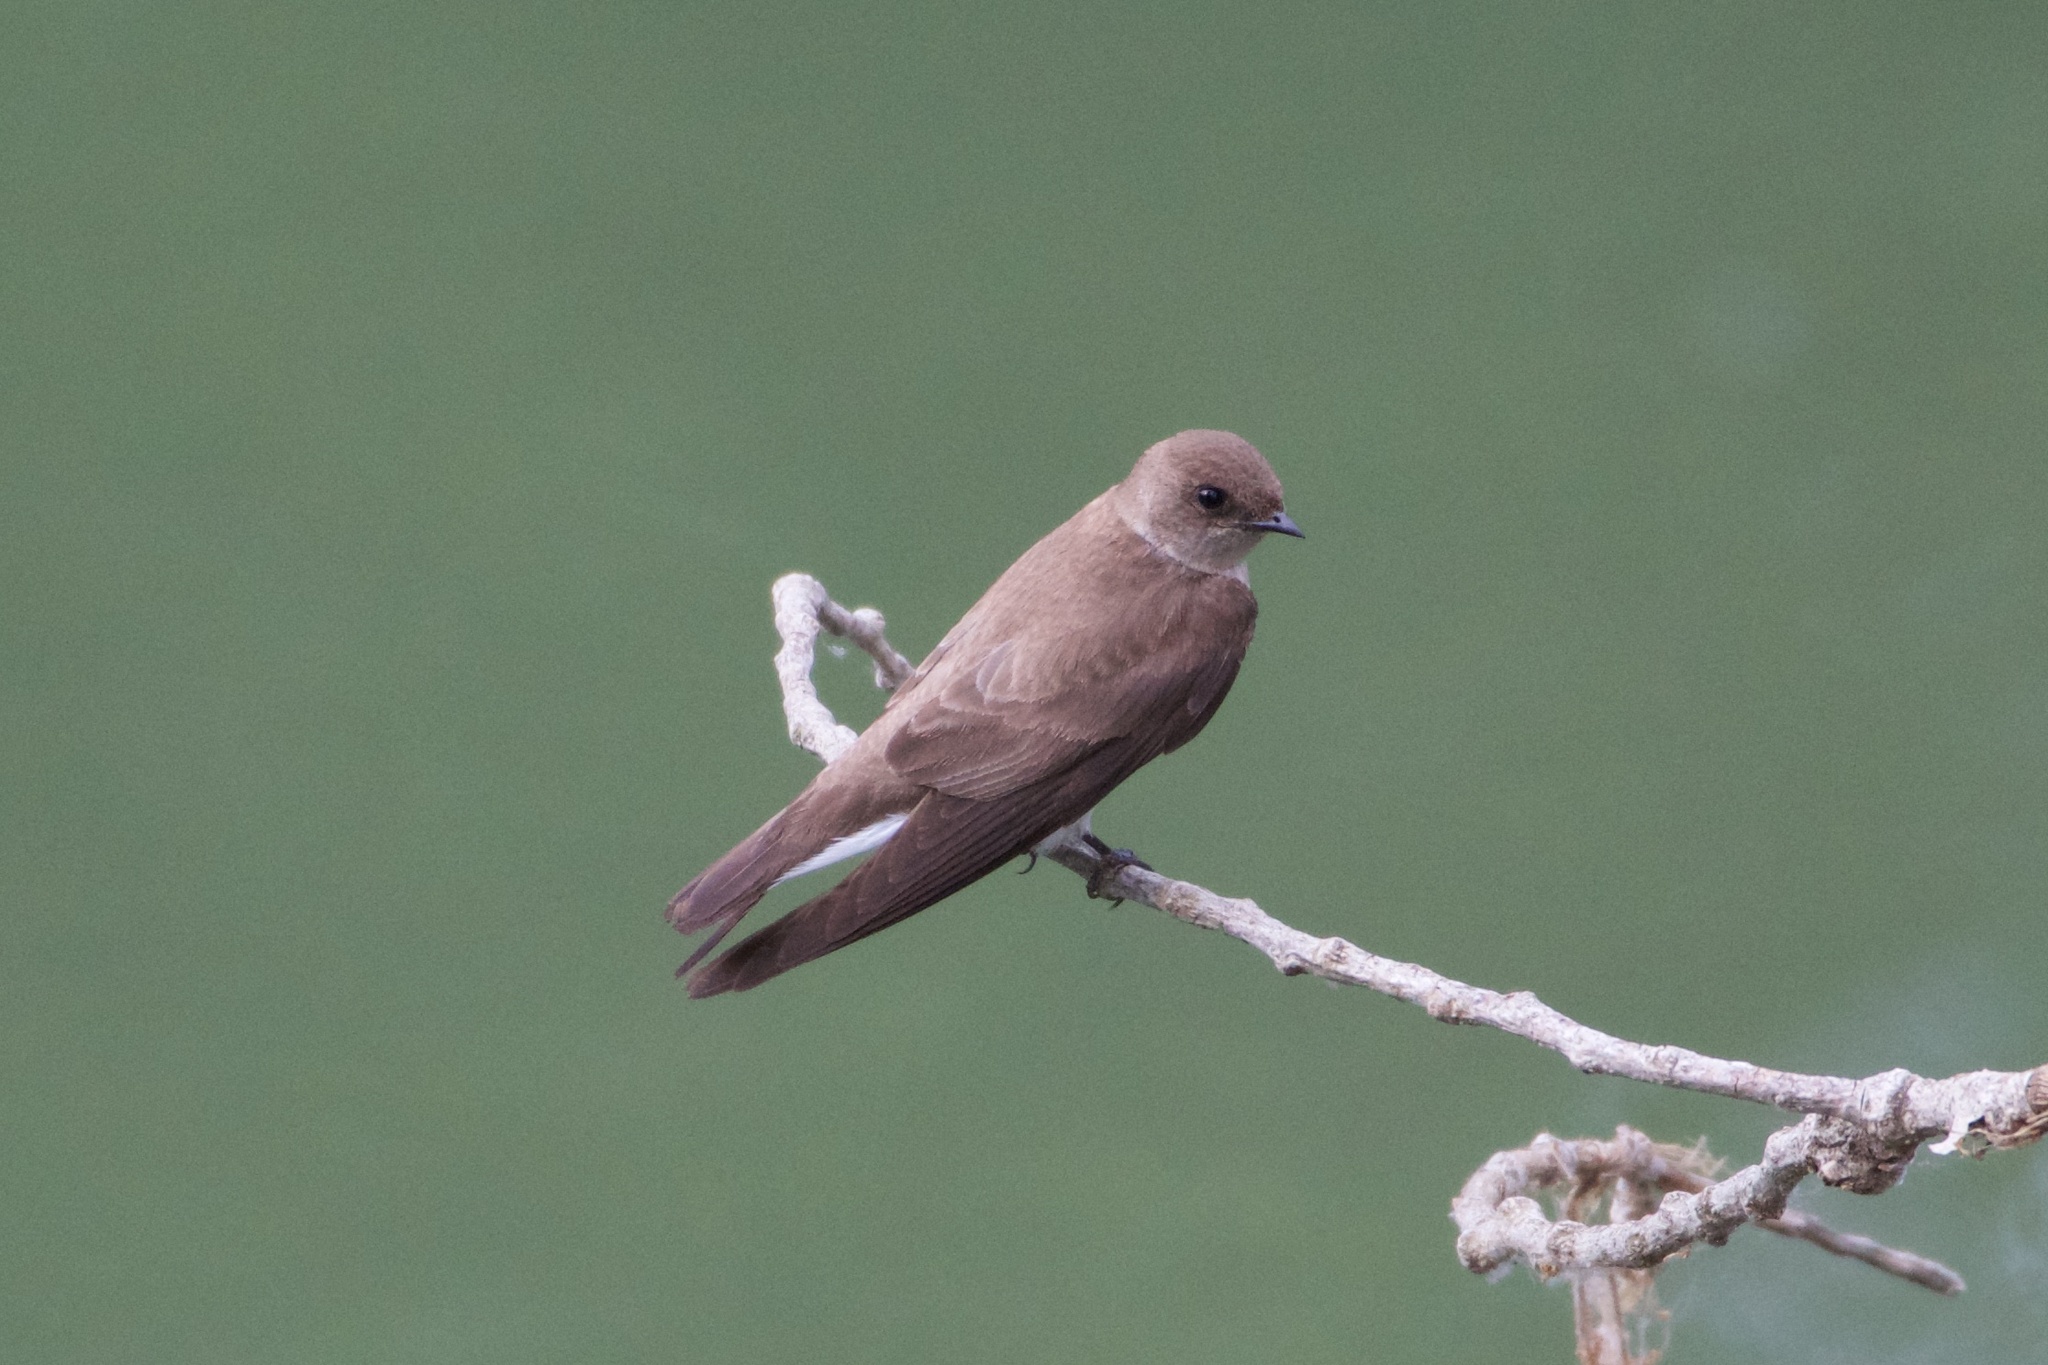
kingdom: Animalia
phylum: Chordata
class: Aves
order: Passeriformes
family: Hirundinidae
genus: Stelgidopteryx
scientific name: Stelgidopteryx serripennis
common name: Northern rough-winged swallow
